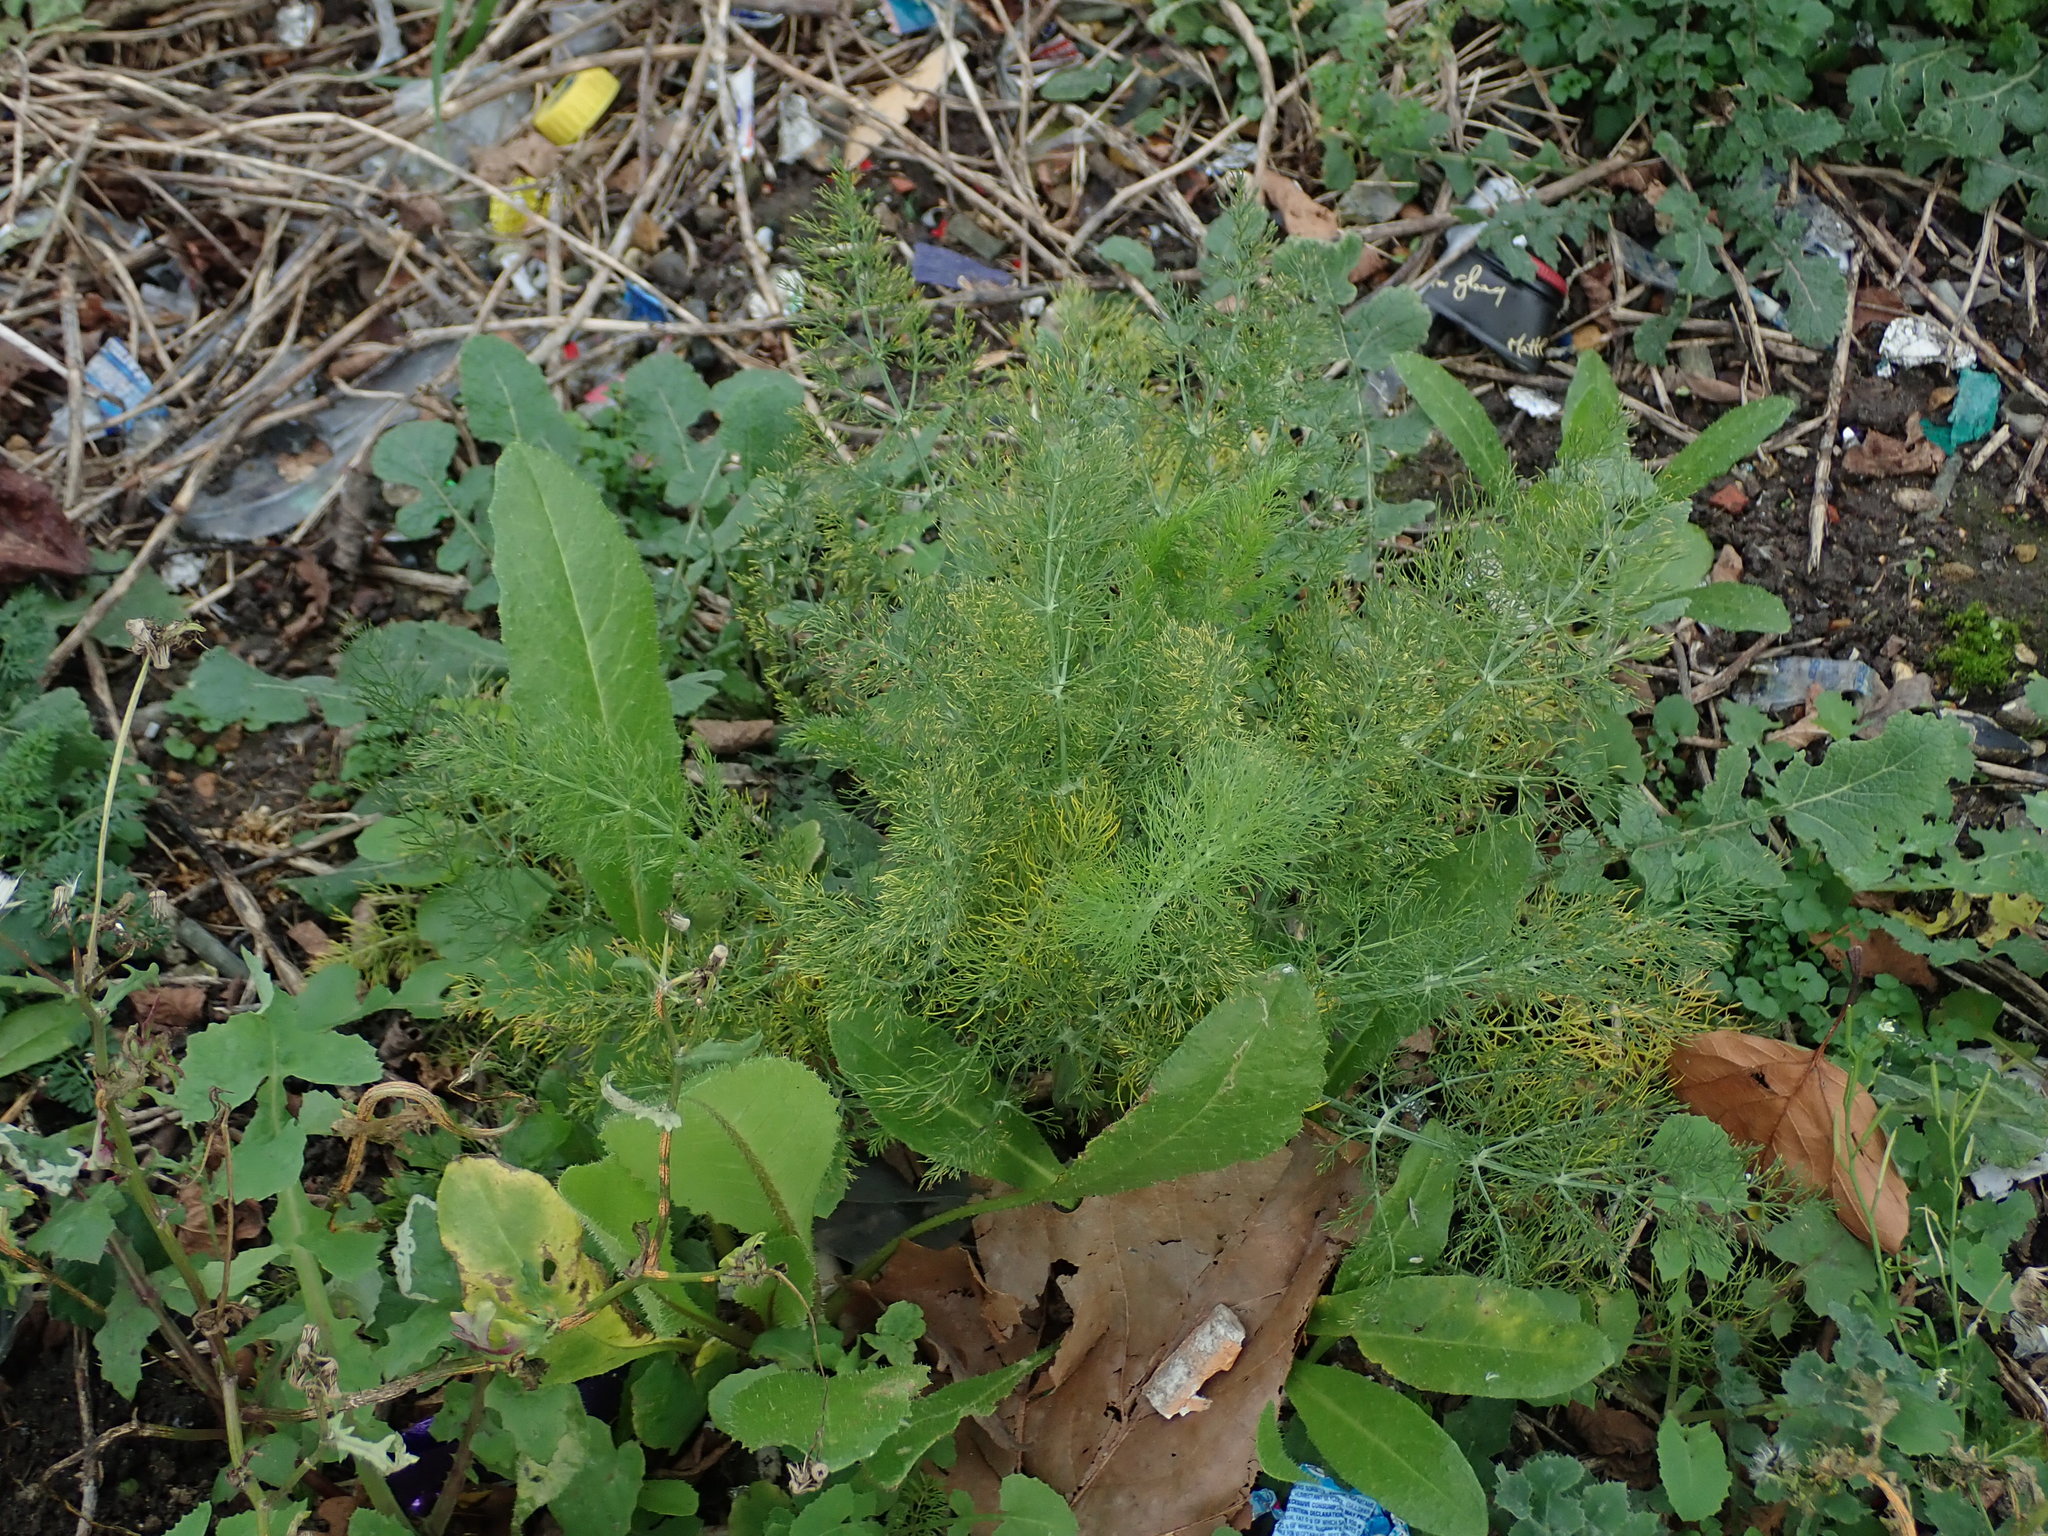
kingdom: Plantae
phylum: Tracheophyta
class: Magnoliopsida
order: Apiales
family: Apiaceae
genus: Foeniculum
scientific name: Foeniculum vulgare
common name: Fennel
